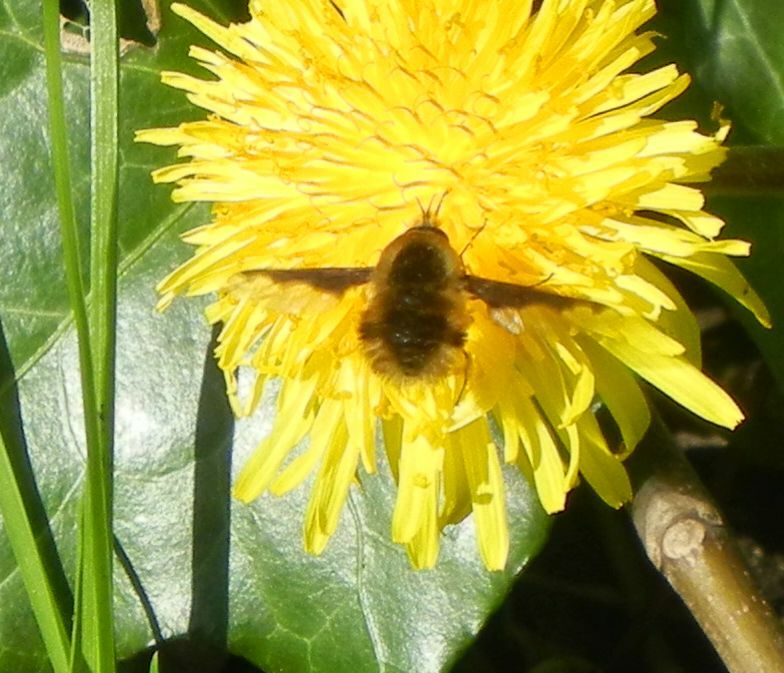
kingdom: Animalia
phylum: Arthropoda
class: Insecta
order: Diptera
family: Bombyliidae
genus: Bombylius
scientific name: Bombylius major
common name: Bee fly
